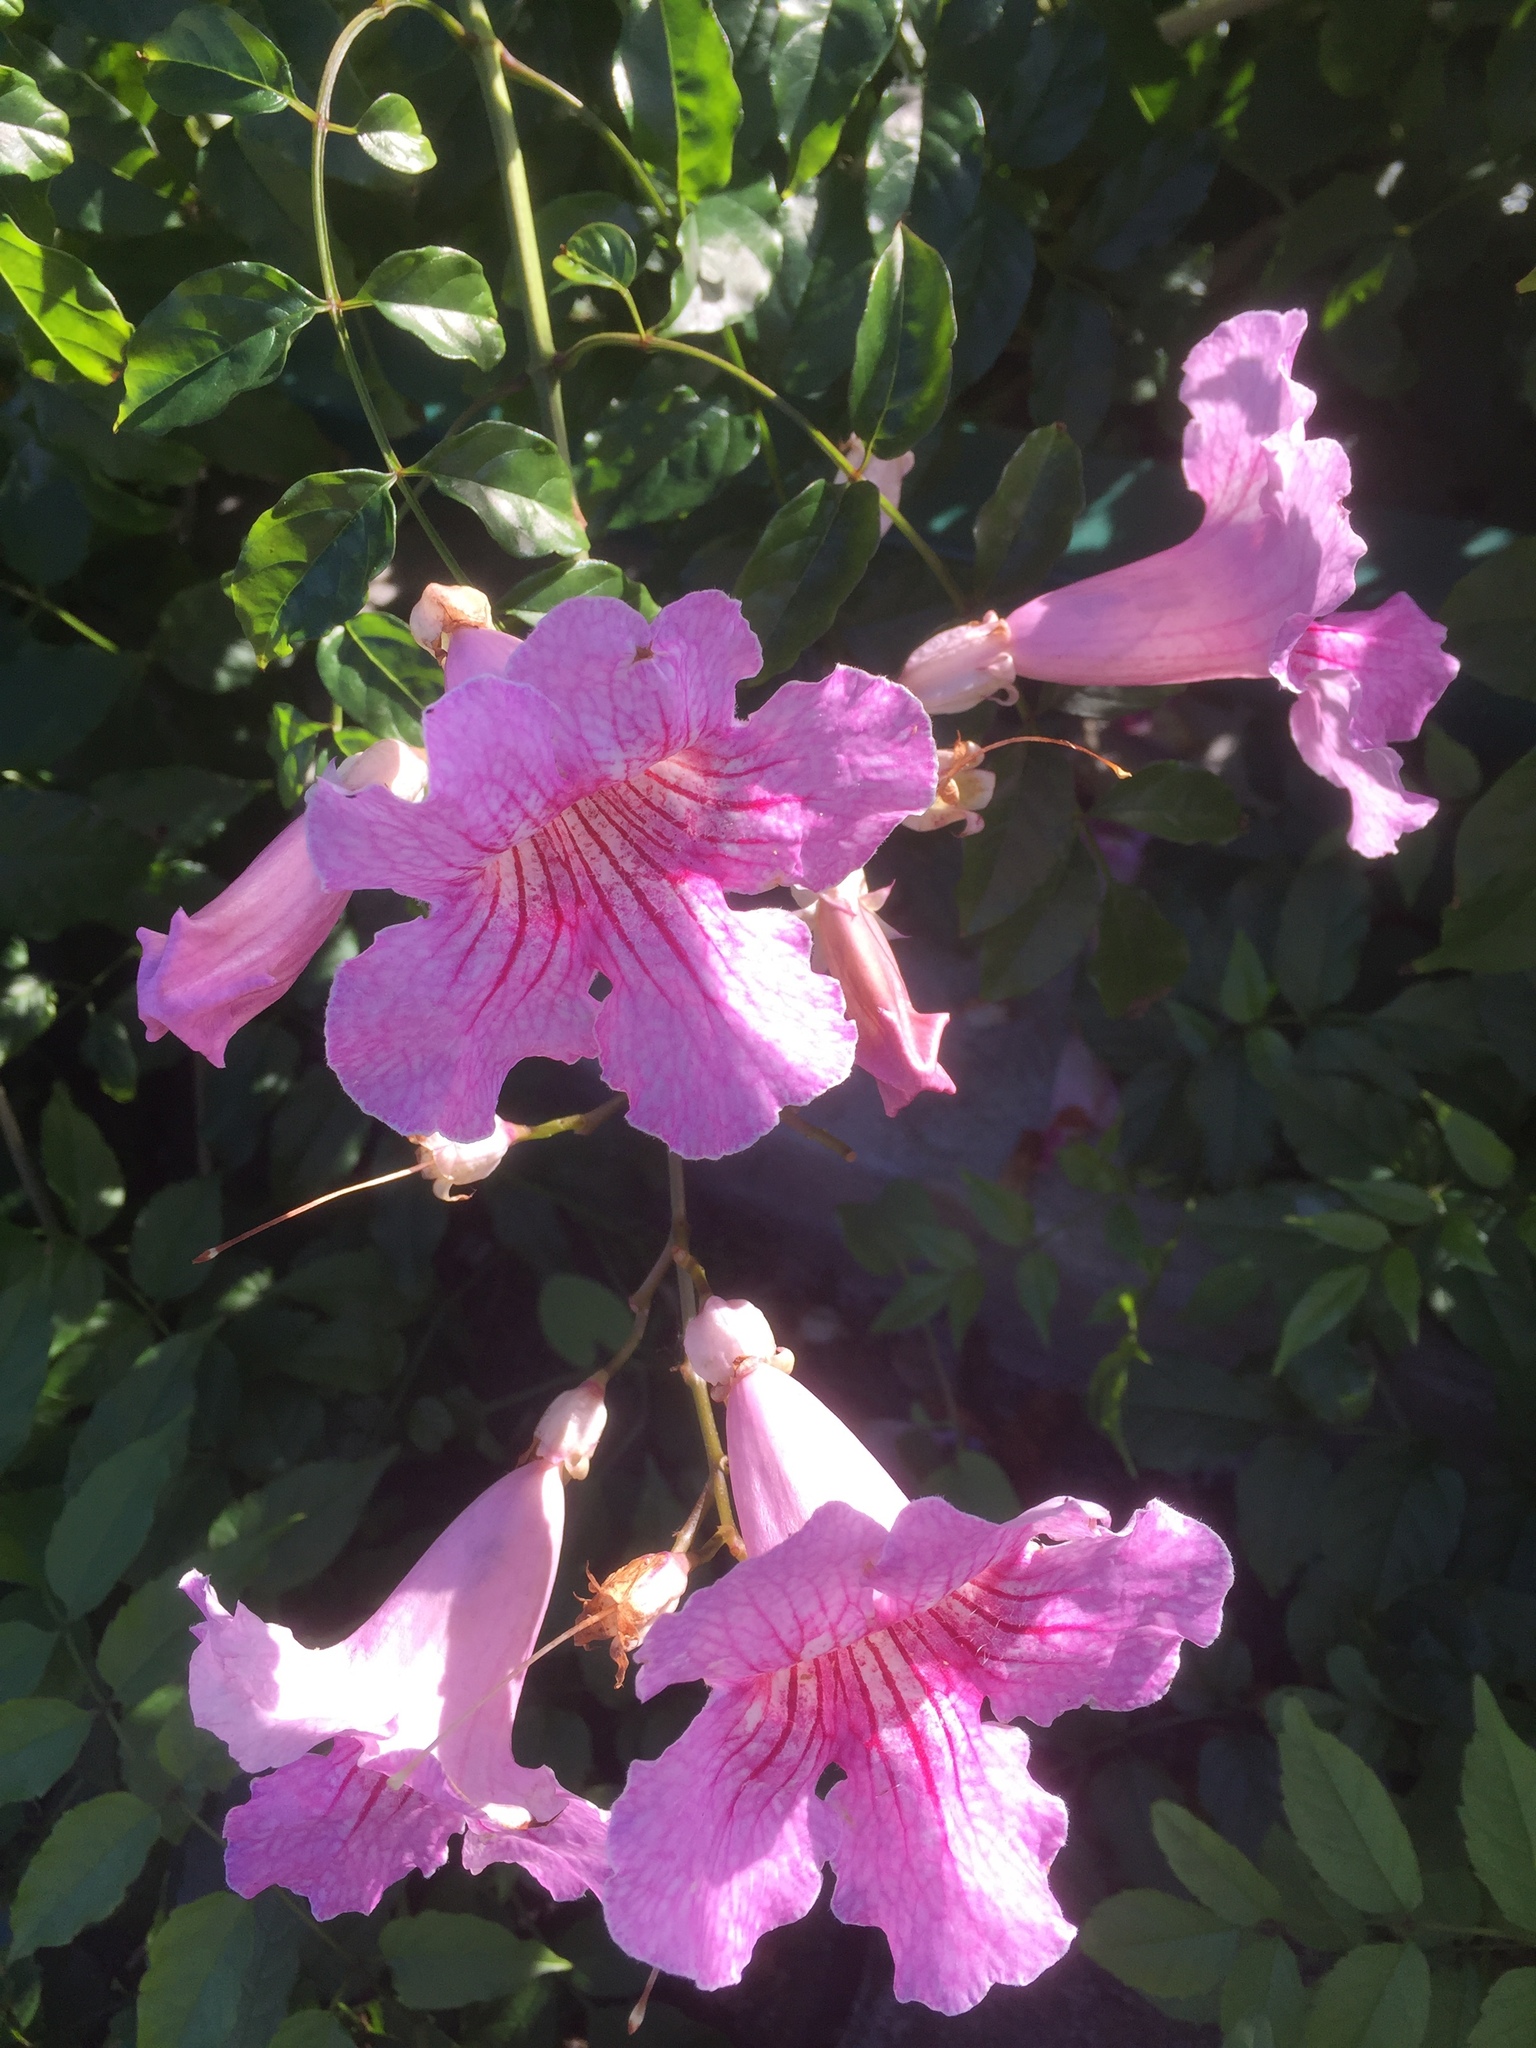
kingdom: Plantae
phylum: Tracheophyta
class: Magnoliopsida
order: Lamiales
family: Bignoniaceae
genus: Podranea
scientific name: Podranea ricasoliana
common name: Zimbabwe creeper
